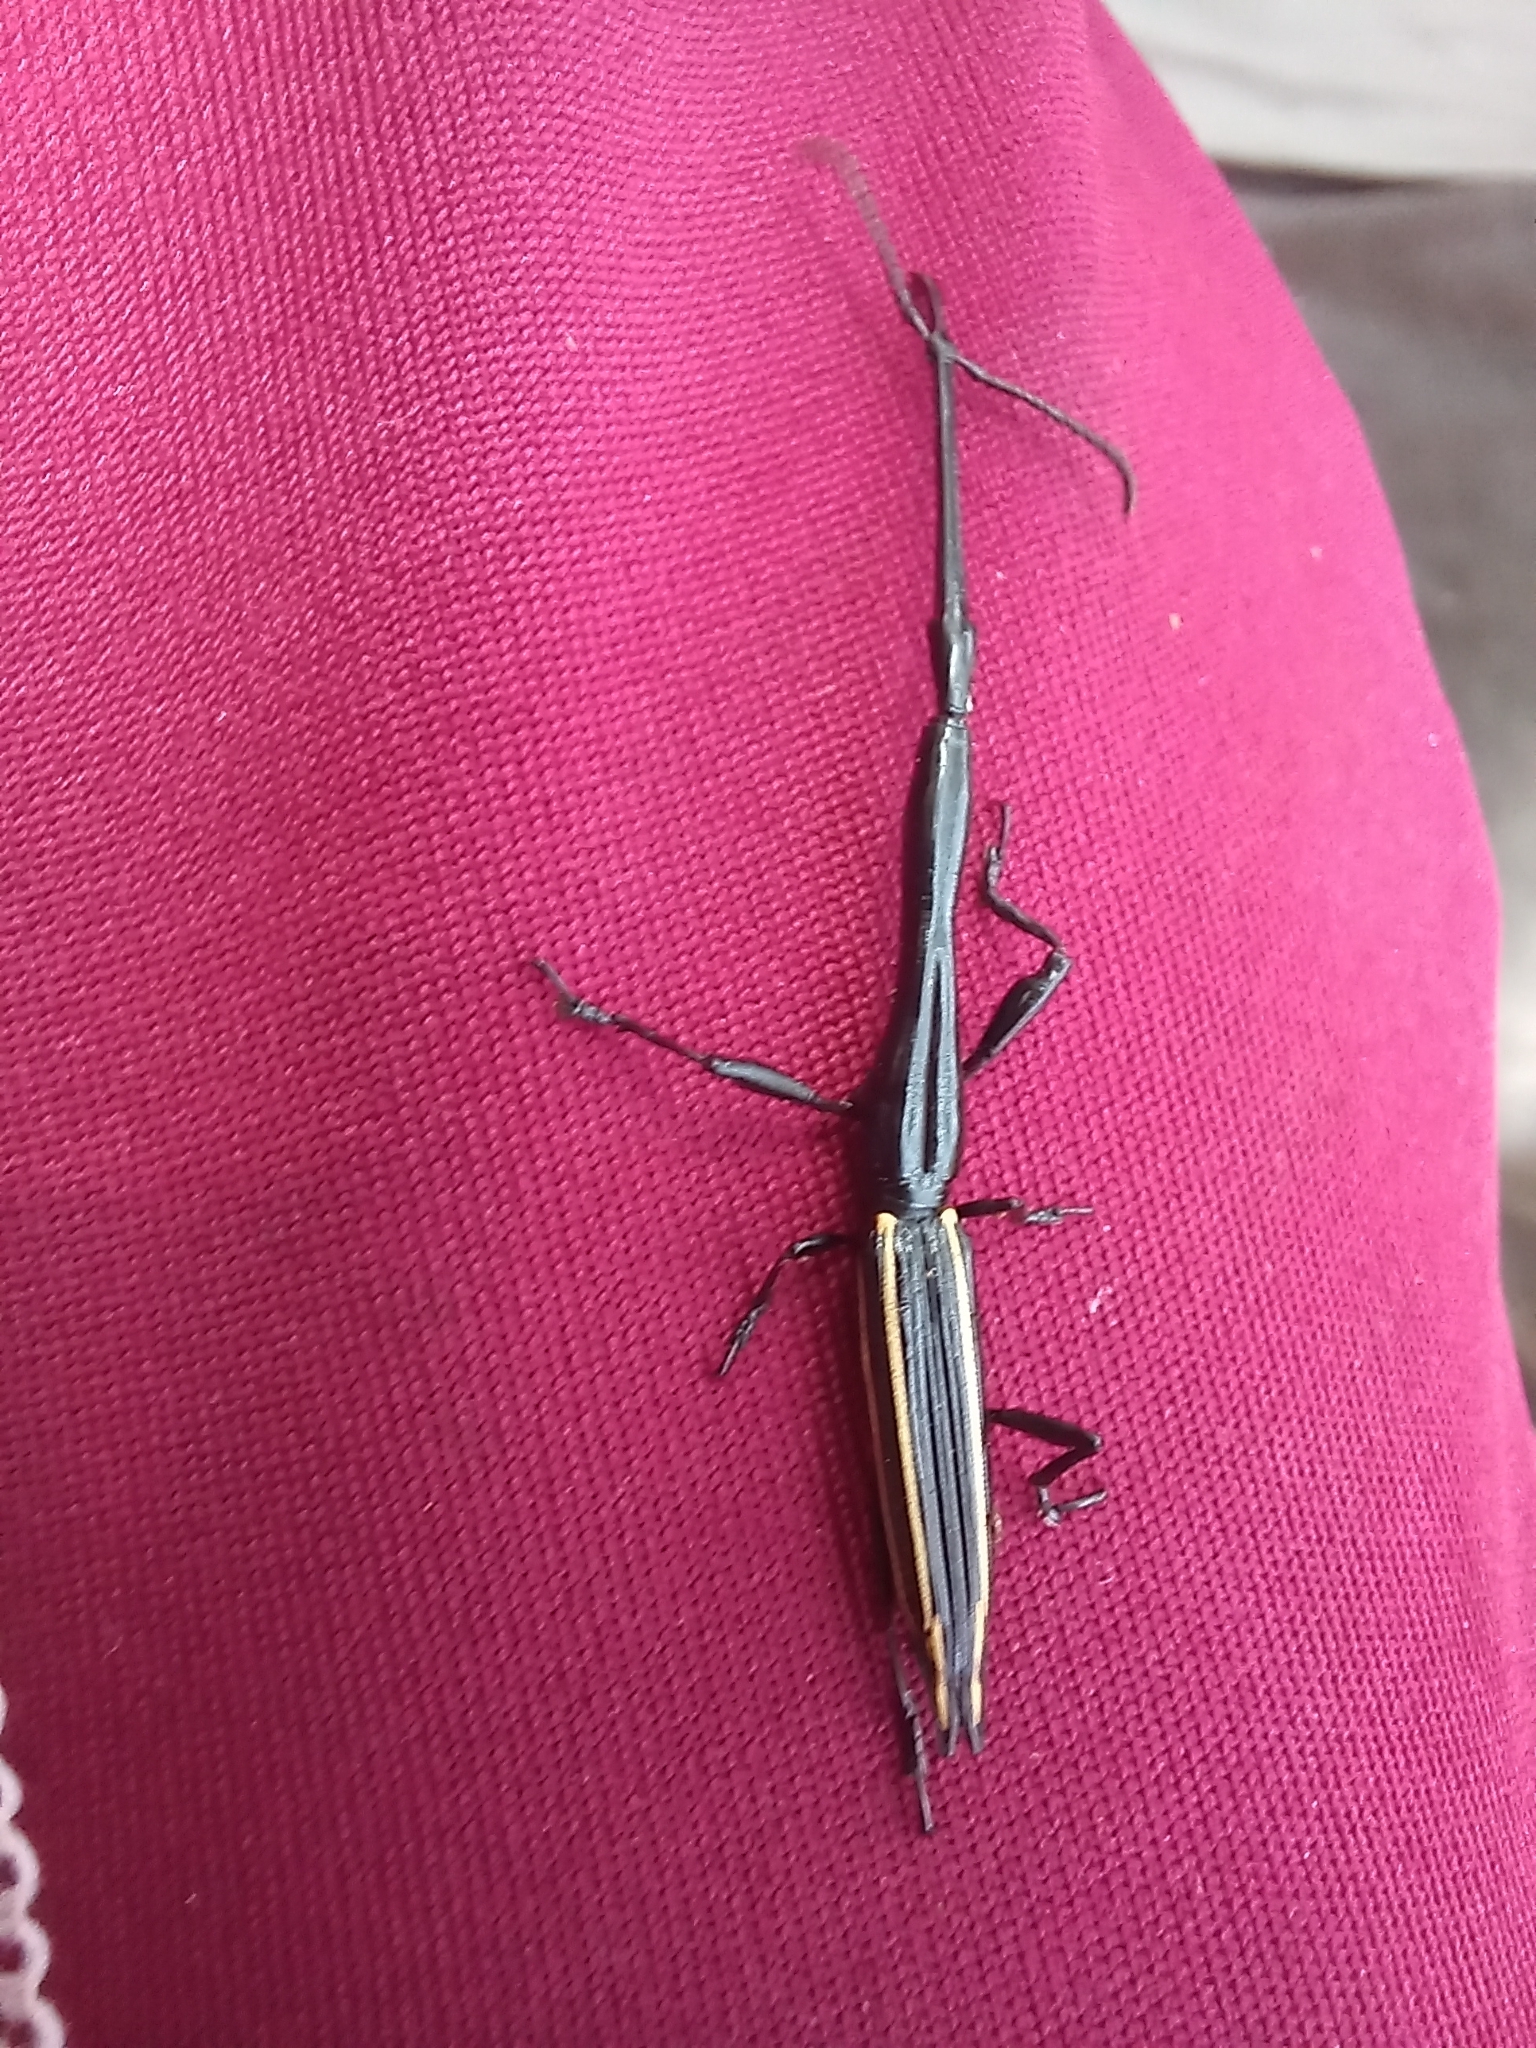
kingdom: Animalia
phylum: Arthropoda
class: Insecta
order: Coleoptera
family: Brentidae
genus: Brentus
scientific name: Brentus anchorago
